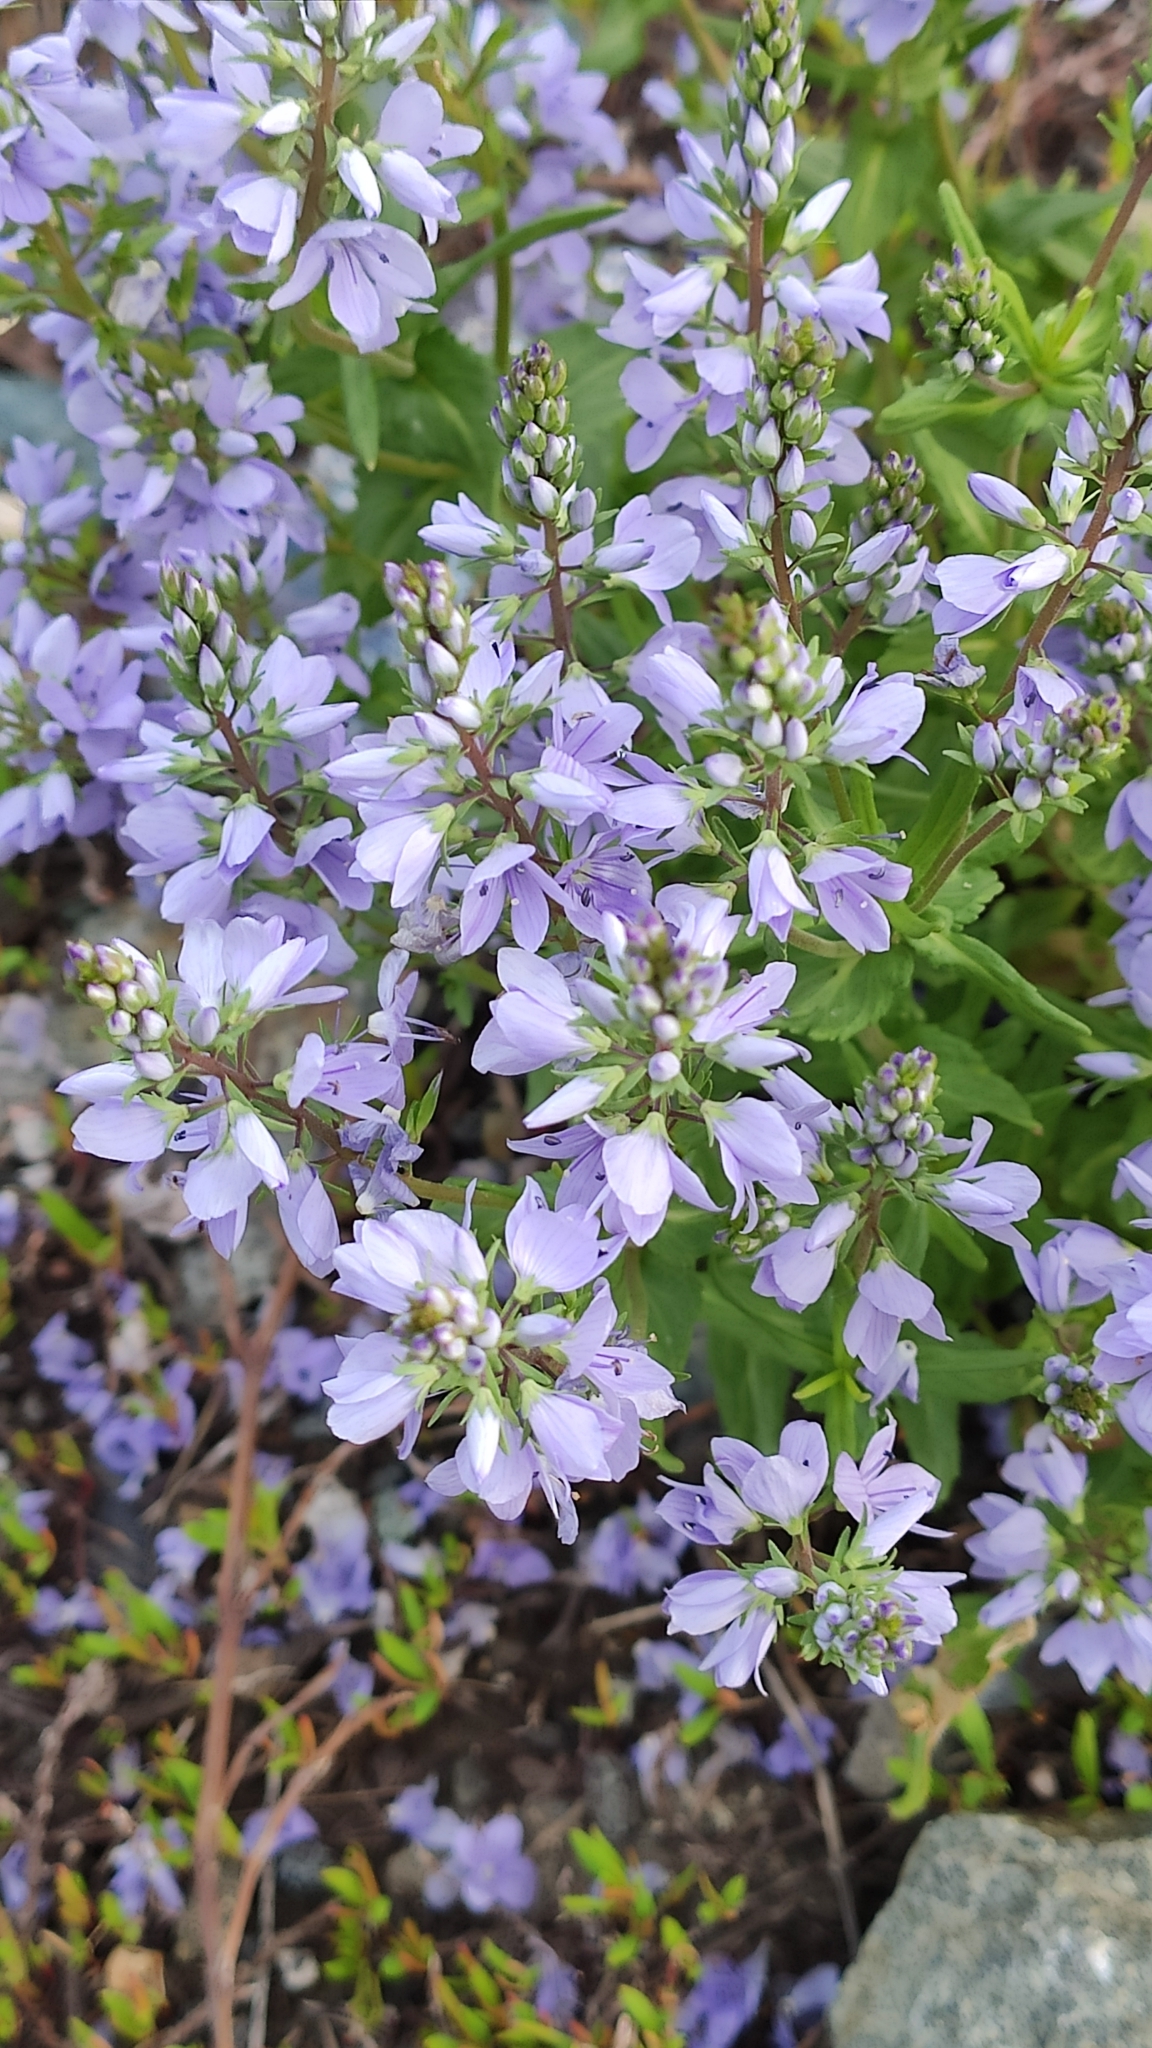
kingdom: Plantae
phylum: Tracheophyta
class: Magnoliopsida
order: Lamiales
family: Plantaginaceae
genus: Veronica
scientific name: Veronica prostrata
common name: Prostrate speedwell
